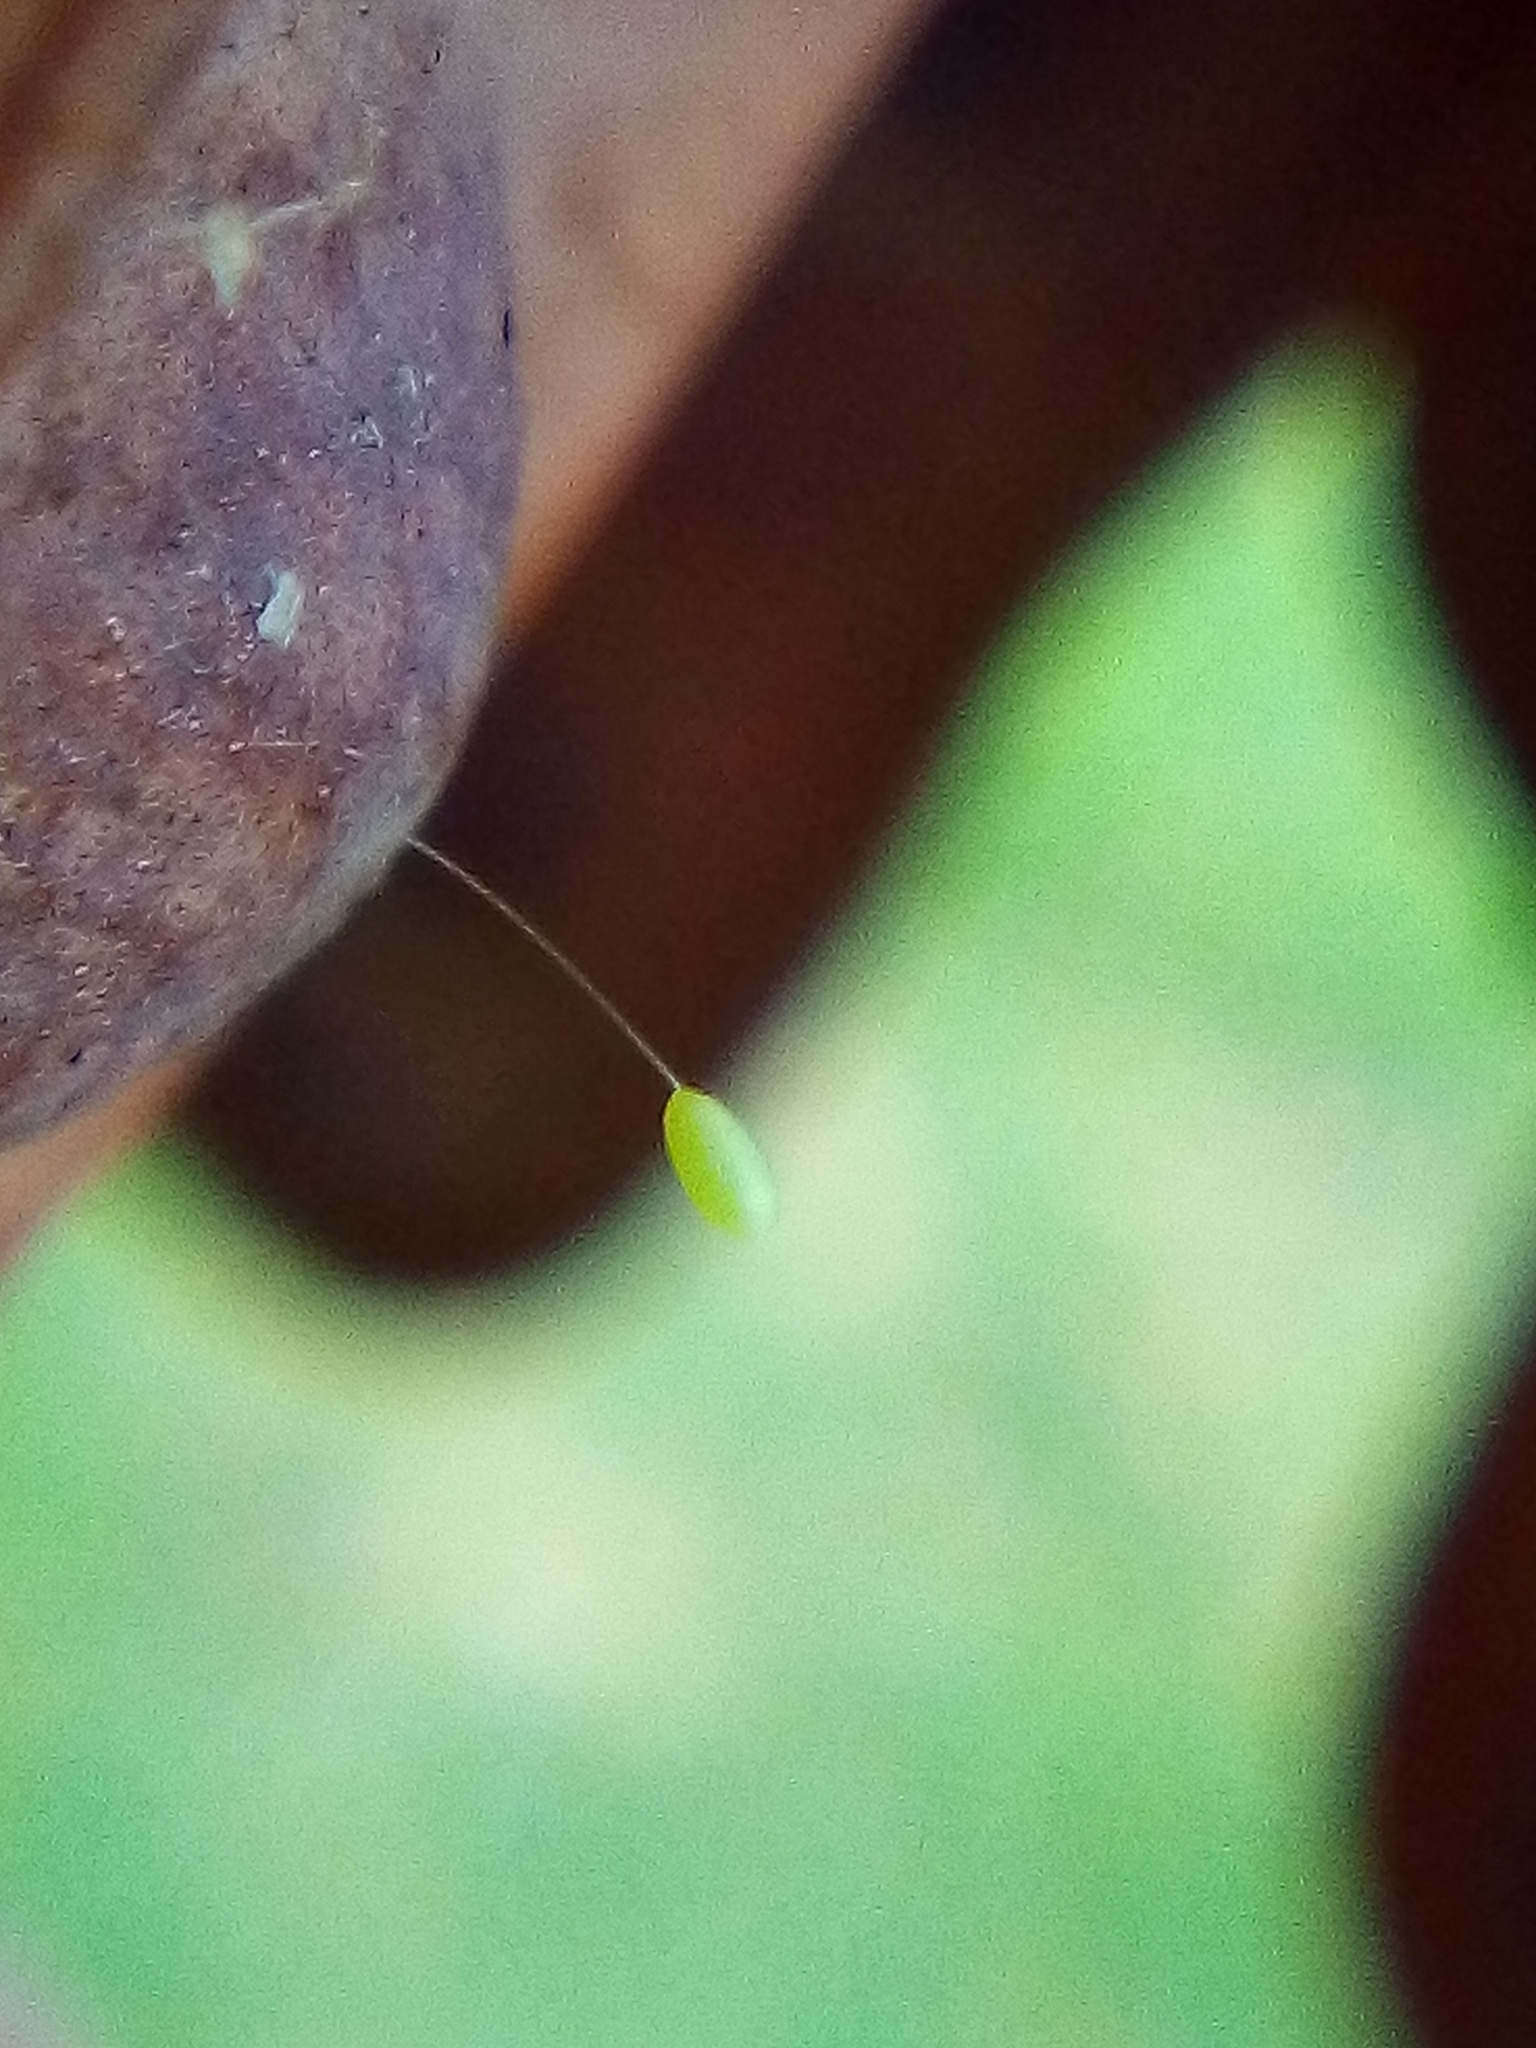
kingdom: Animalia
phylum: Arthropoda
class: Insecta
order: Neuroptera
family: Chrysopidae
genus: Mallada
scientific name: Mallada basalis
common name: Green lacewing
